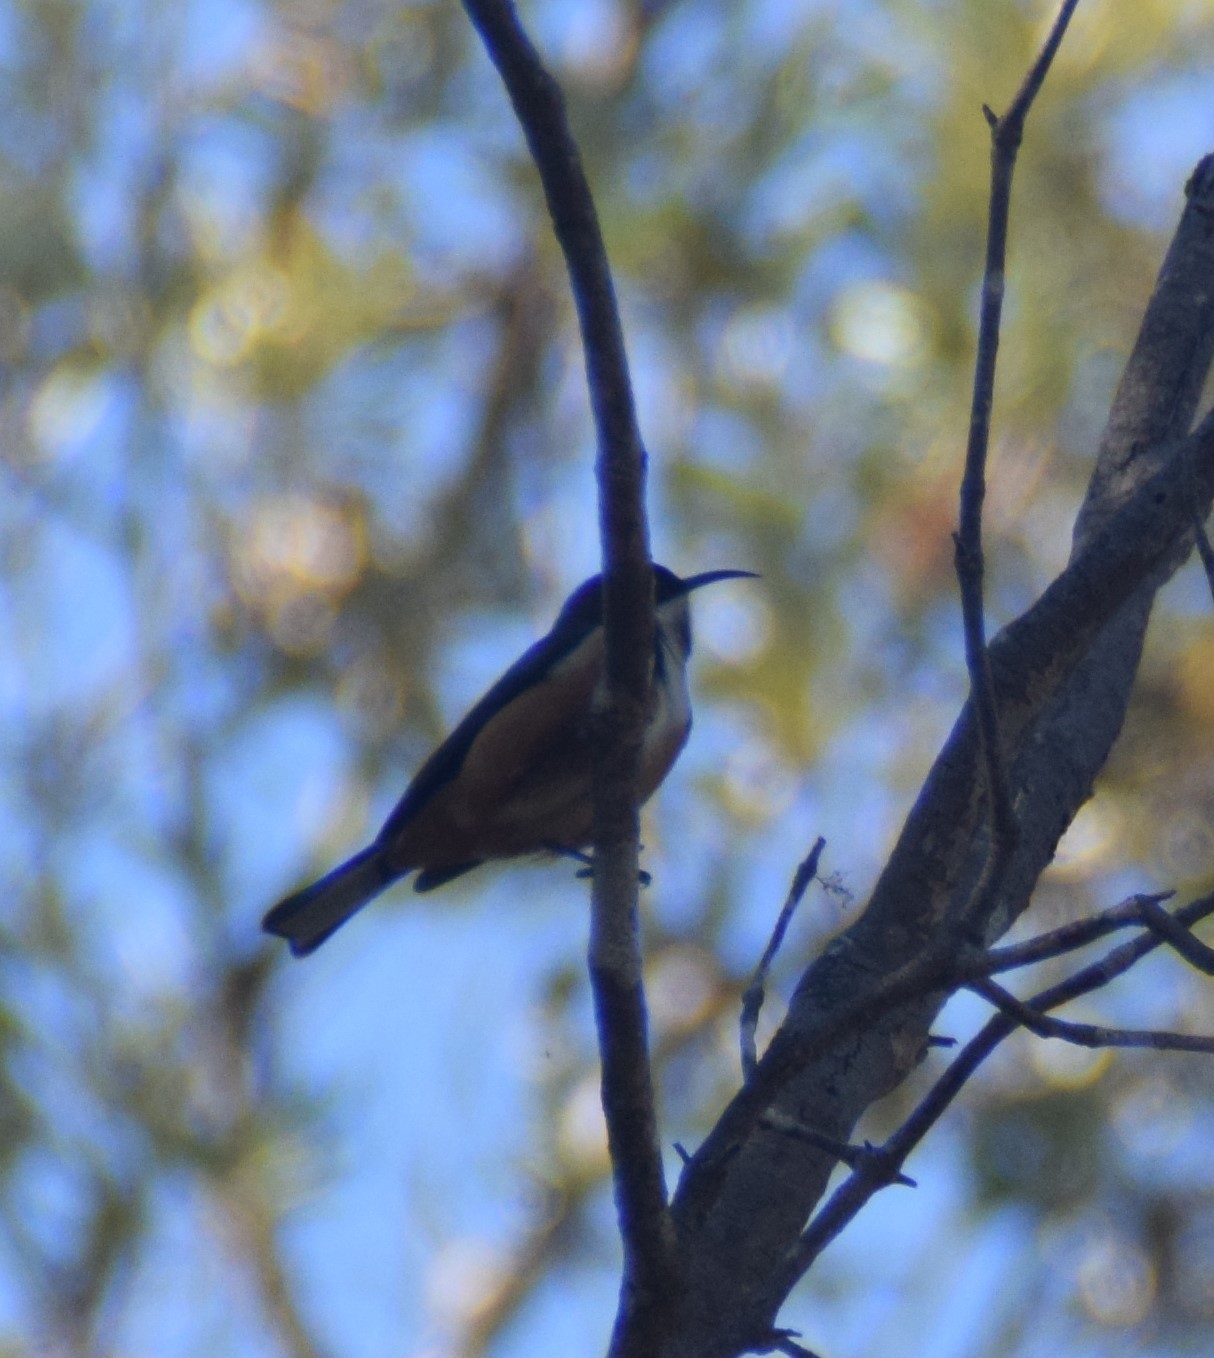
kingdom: Animalia
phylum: Chordata
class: Aves
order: Passeriformes
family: Meliphagidae
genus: Acanthorhynchus
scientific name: Acanthorhynchus tenuirostris
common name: Eastern spinebill
